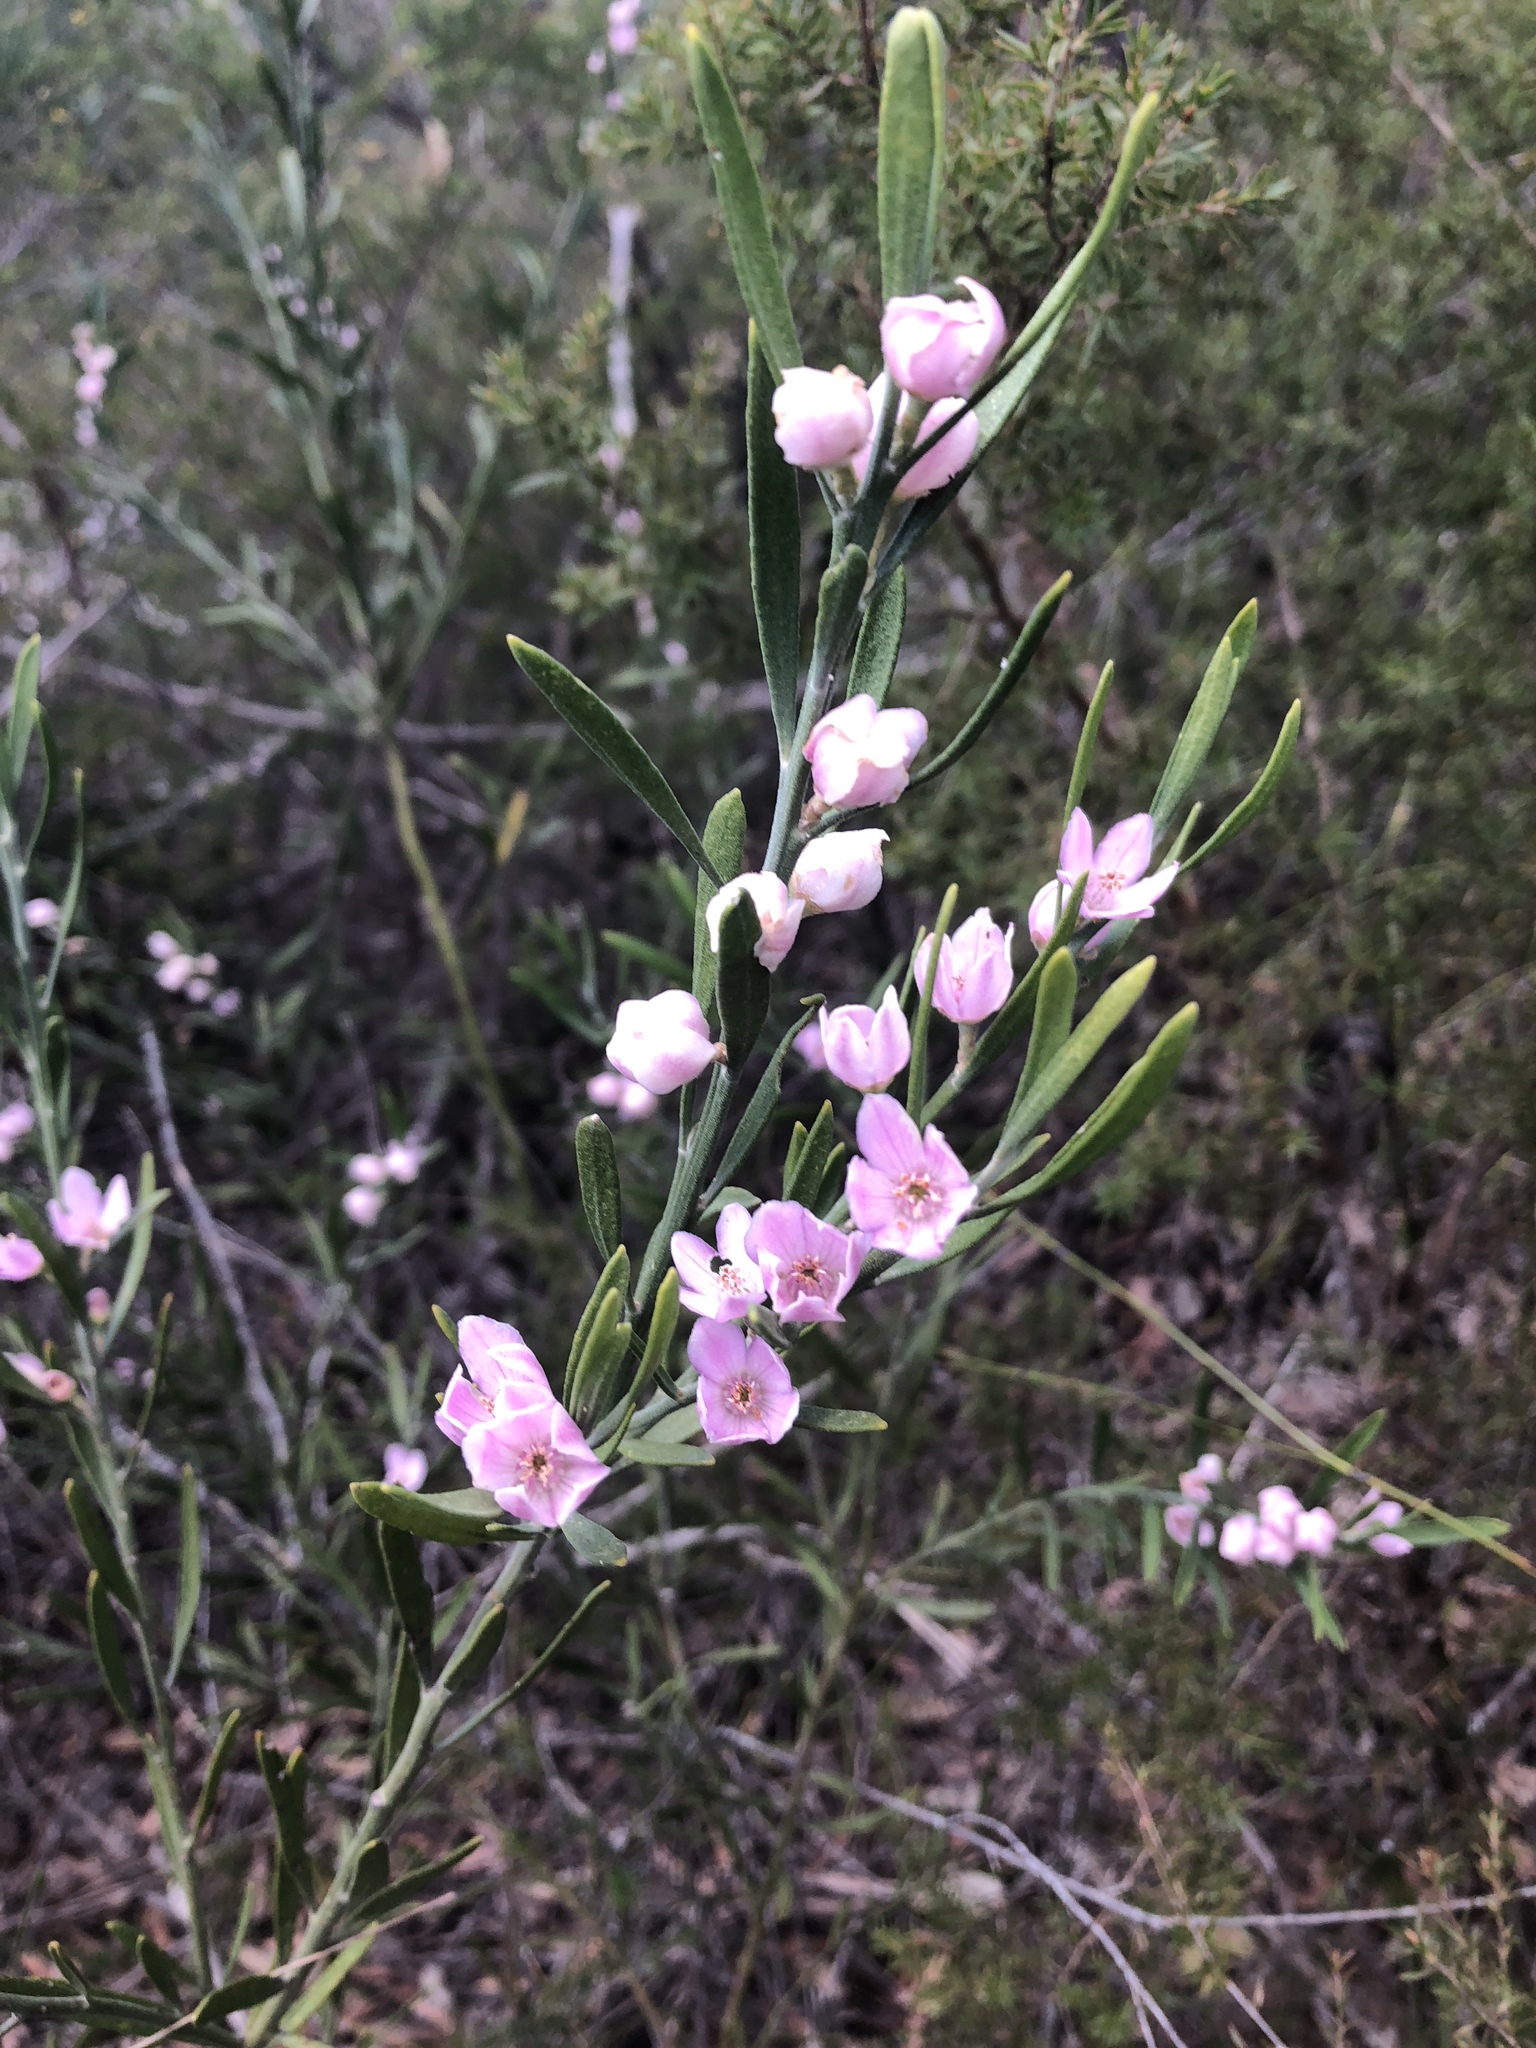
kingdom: Plantae
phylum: Tracheophyta
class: Magnoliopsida
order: Sapindales
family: Rutaceae
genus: Eriostemon
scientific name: Eriostemon australasius
